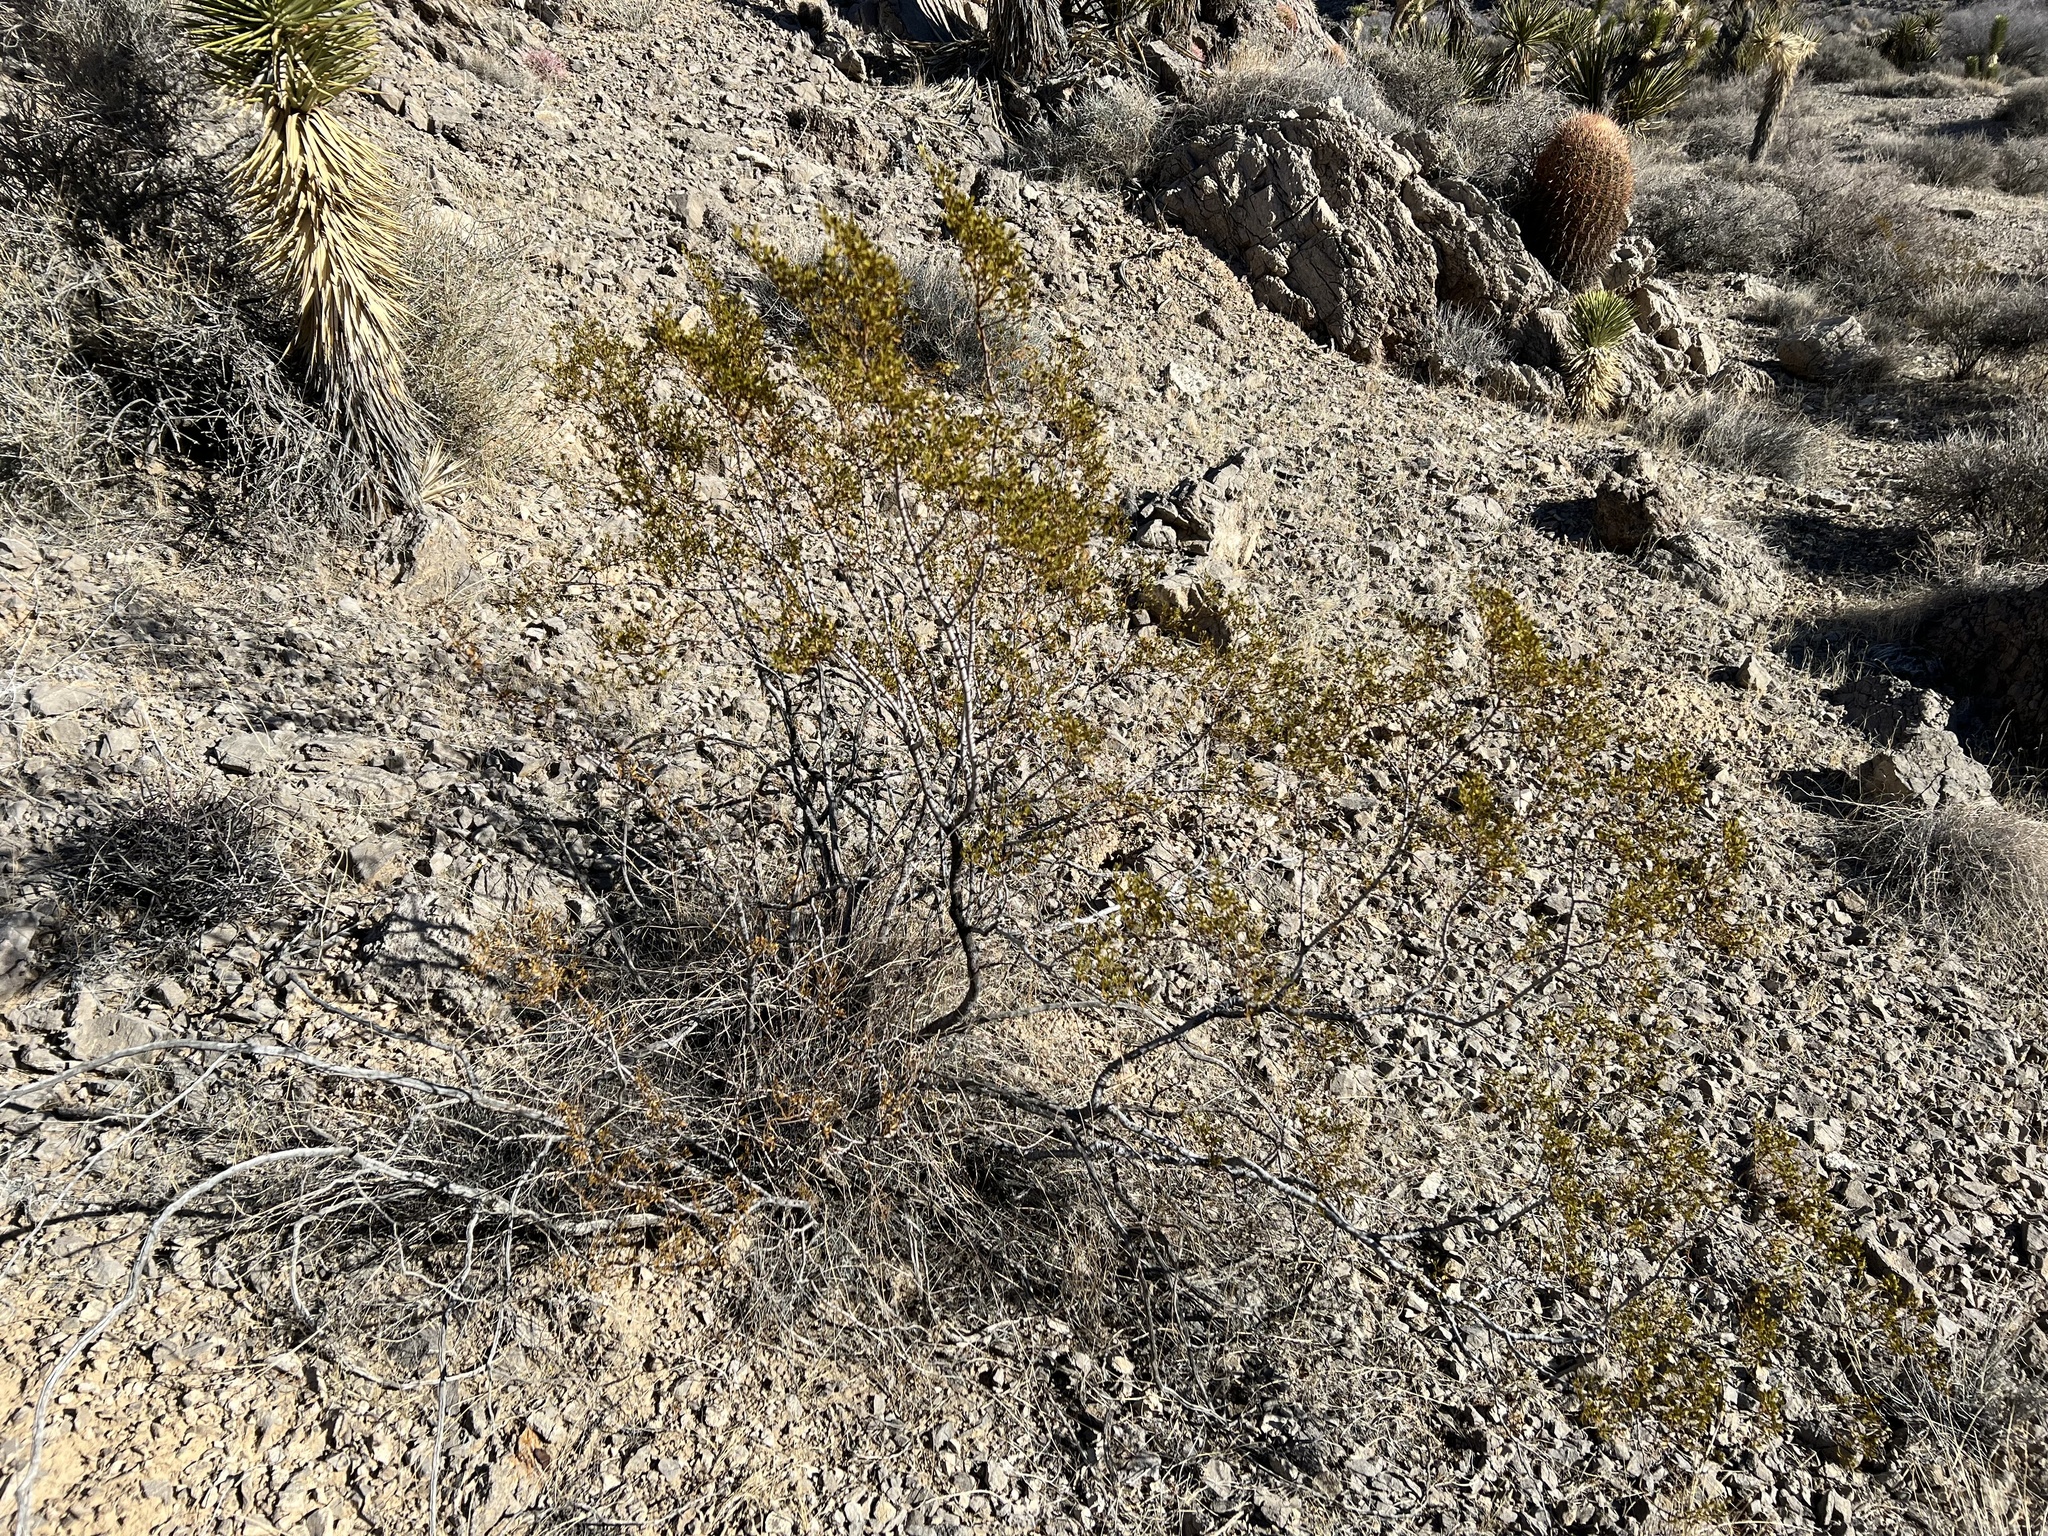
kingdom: Plantae
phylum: Tracheophyta
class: Magnoliopsida
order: Zygophyllales
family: Zygophyllaceae
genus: Larrea
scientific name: Larrea tridentata
